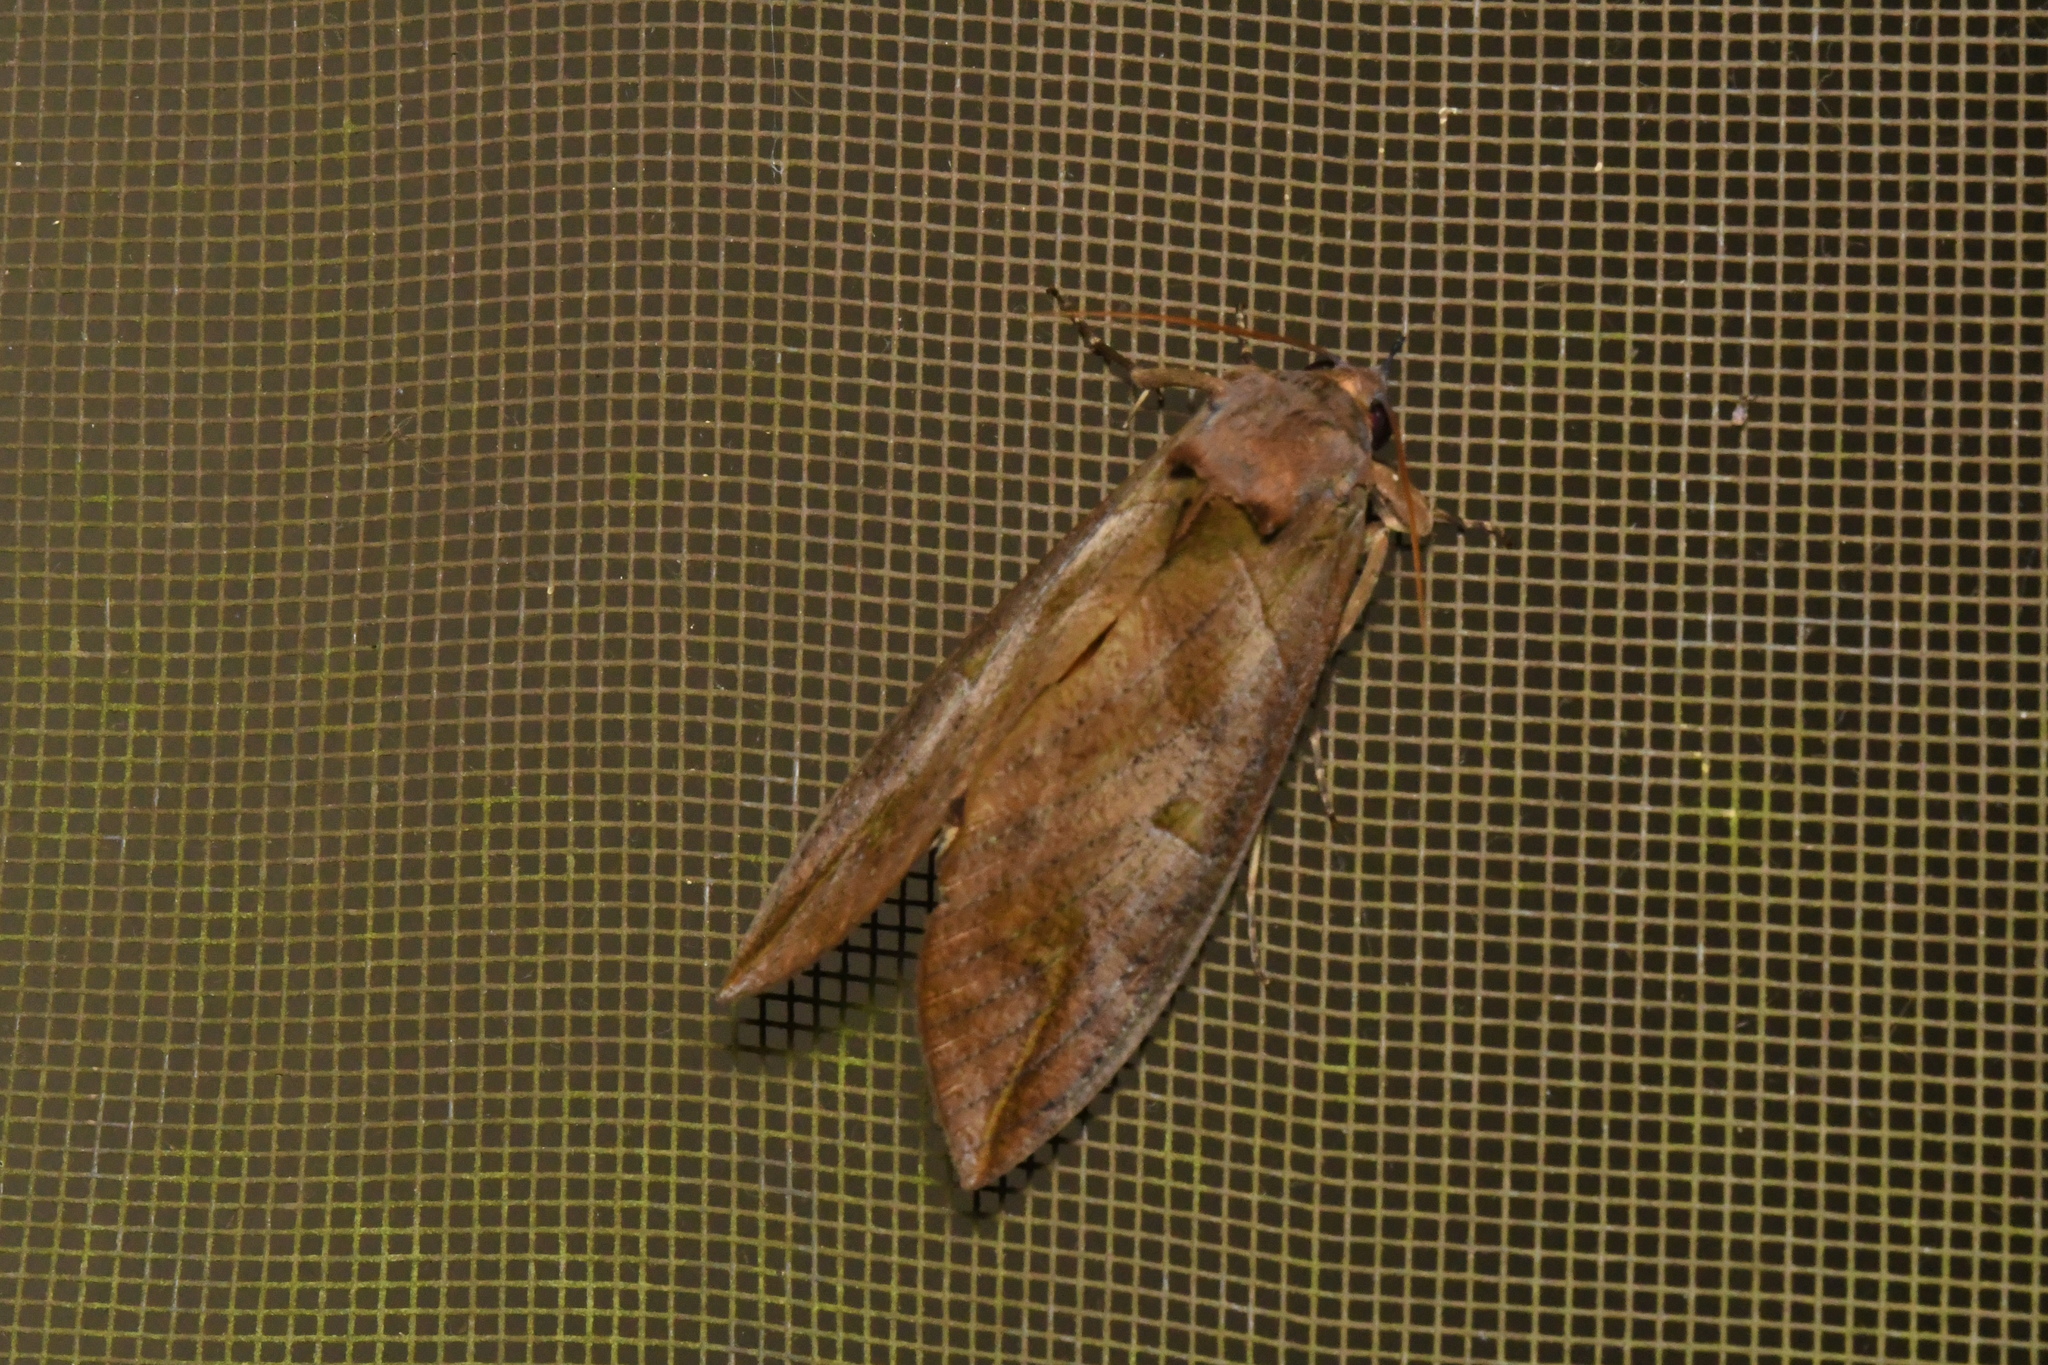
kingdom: Animalia
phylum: Arthropoda
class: Insecta
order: Lepidoptera
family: Erebidae
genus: Eudocima
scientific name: Eudocima phalonia
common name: Wasp
